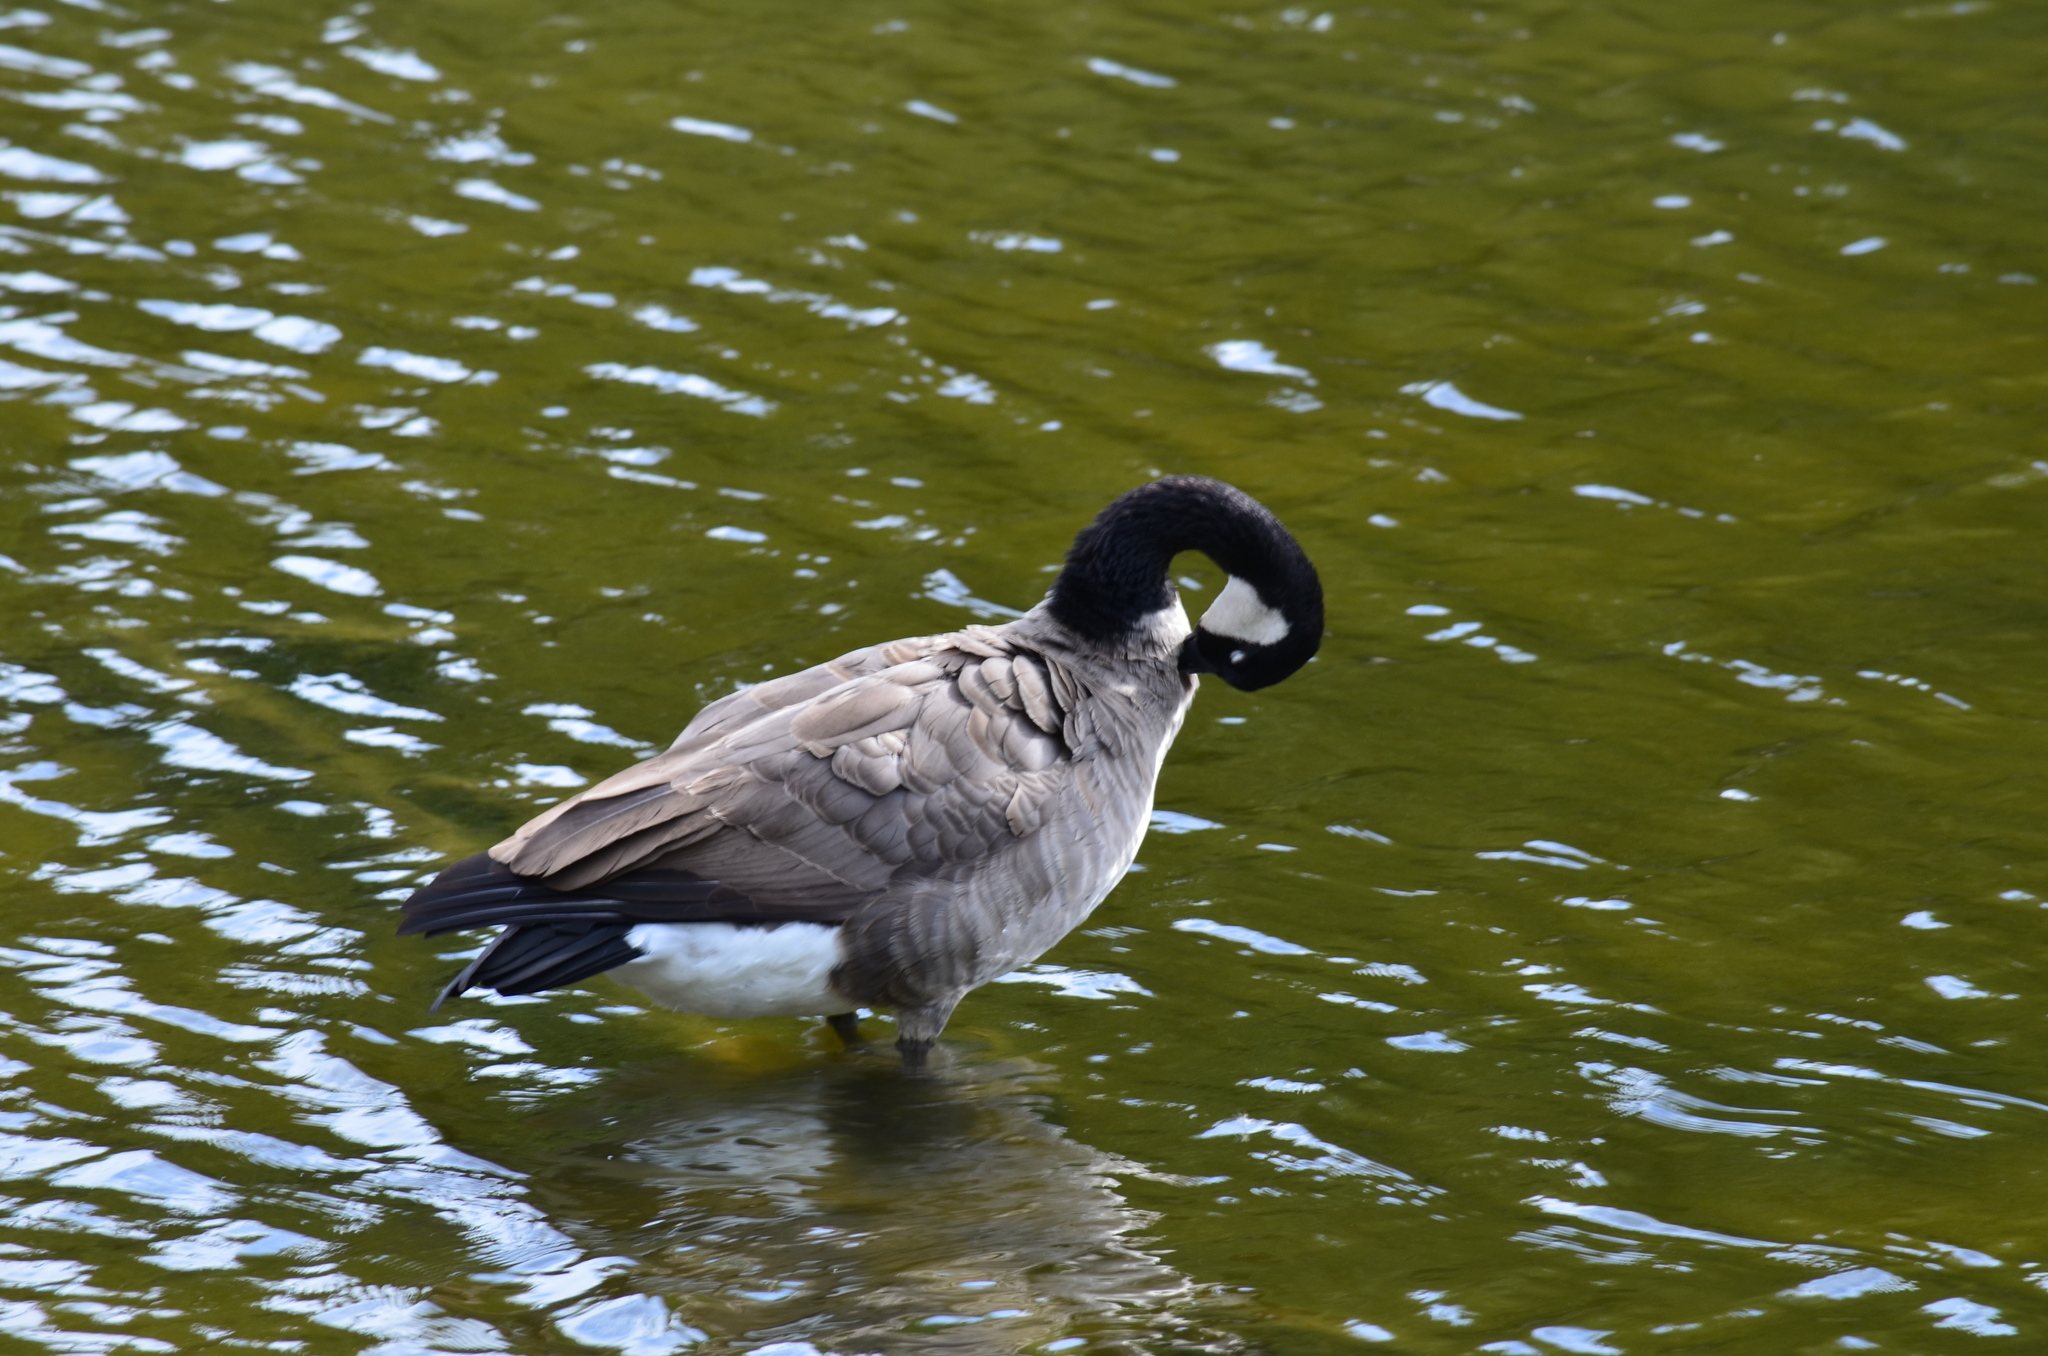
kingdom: Animalia
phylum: Chordata
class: Aves
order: Anseriformes
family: Anatidae
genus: Branta
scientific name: Branta canadensis
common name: Canada goose
